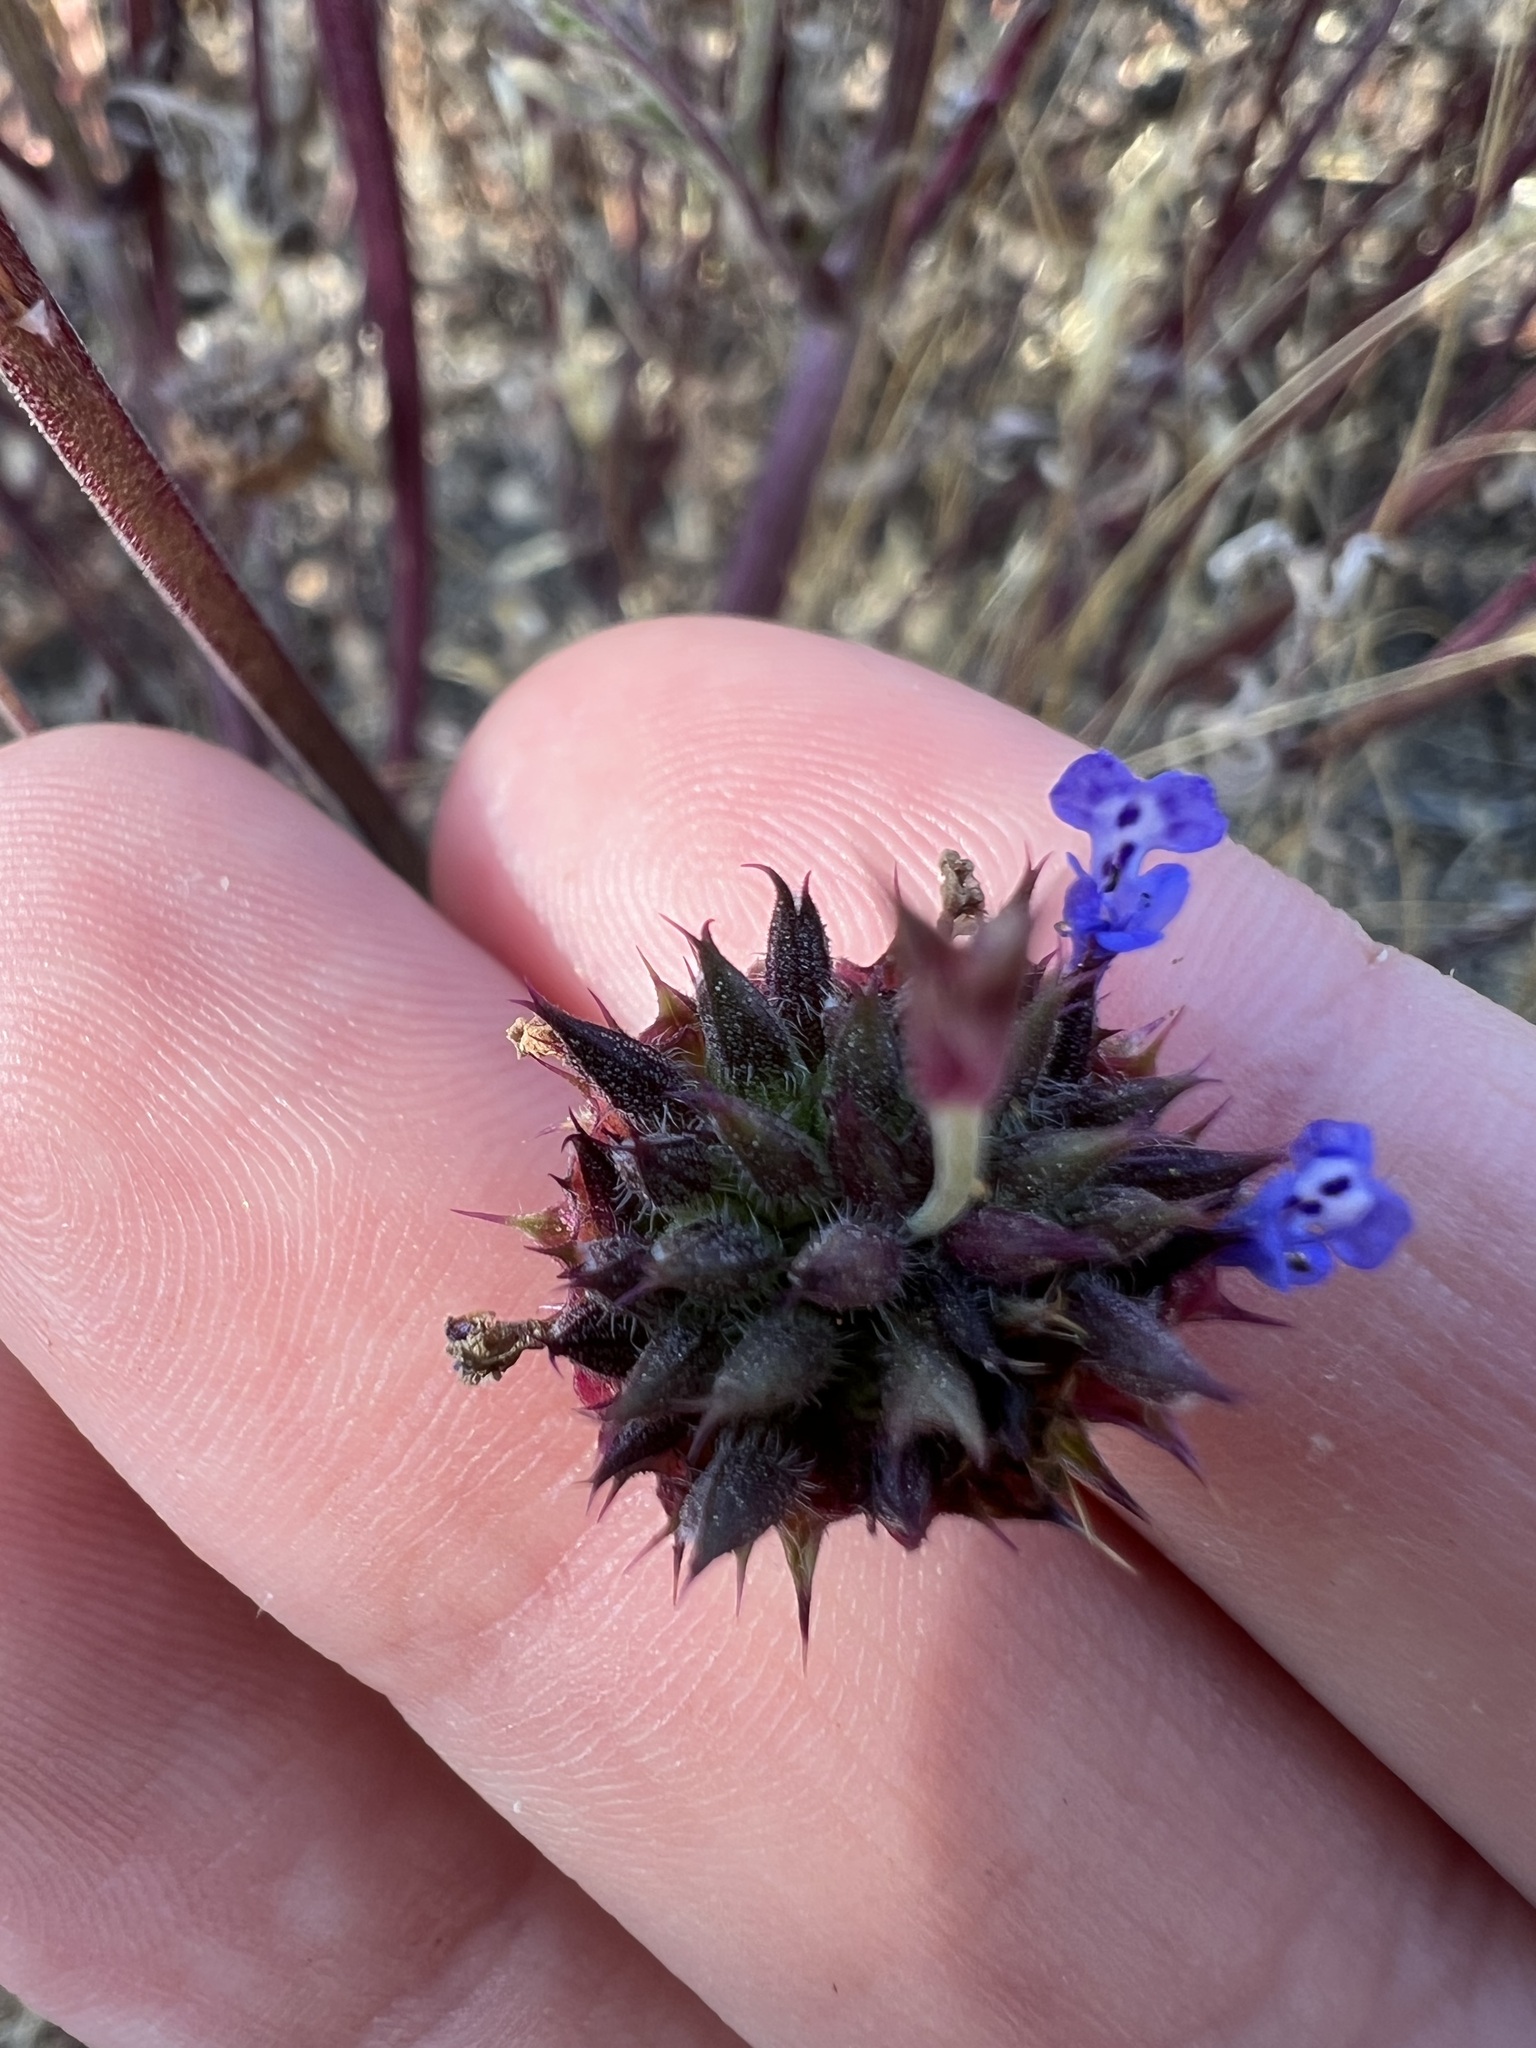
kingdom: Plantae
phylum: Tracheophyta
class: Magnoliopsida
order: Lamiales
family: Lamiaceae
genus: Salvia
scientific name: Salvia columbariae
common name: Chia
